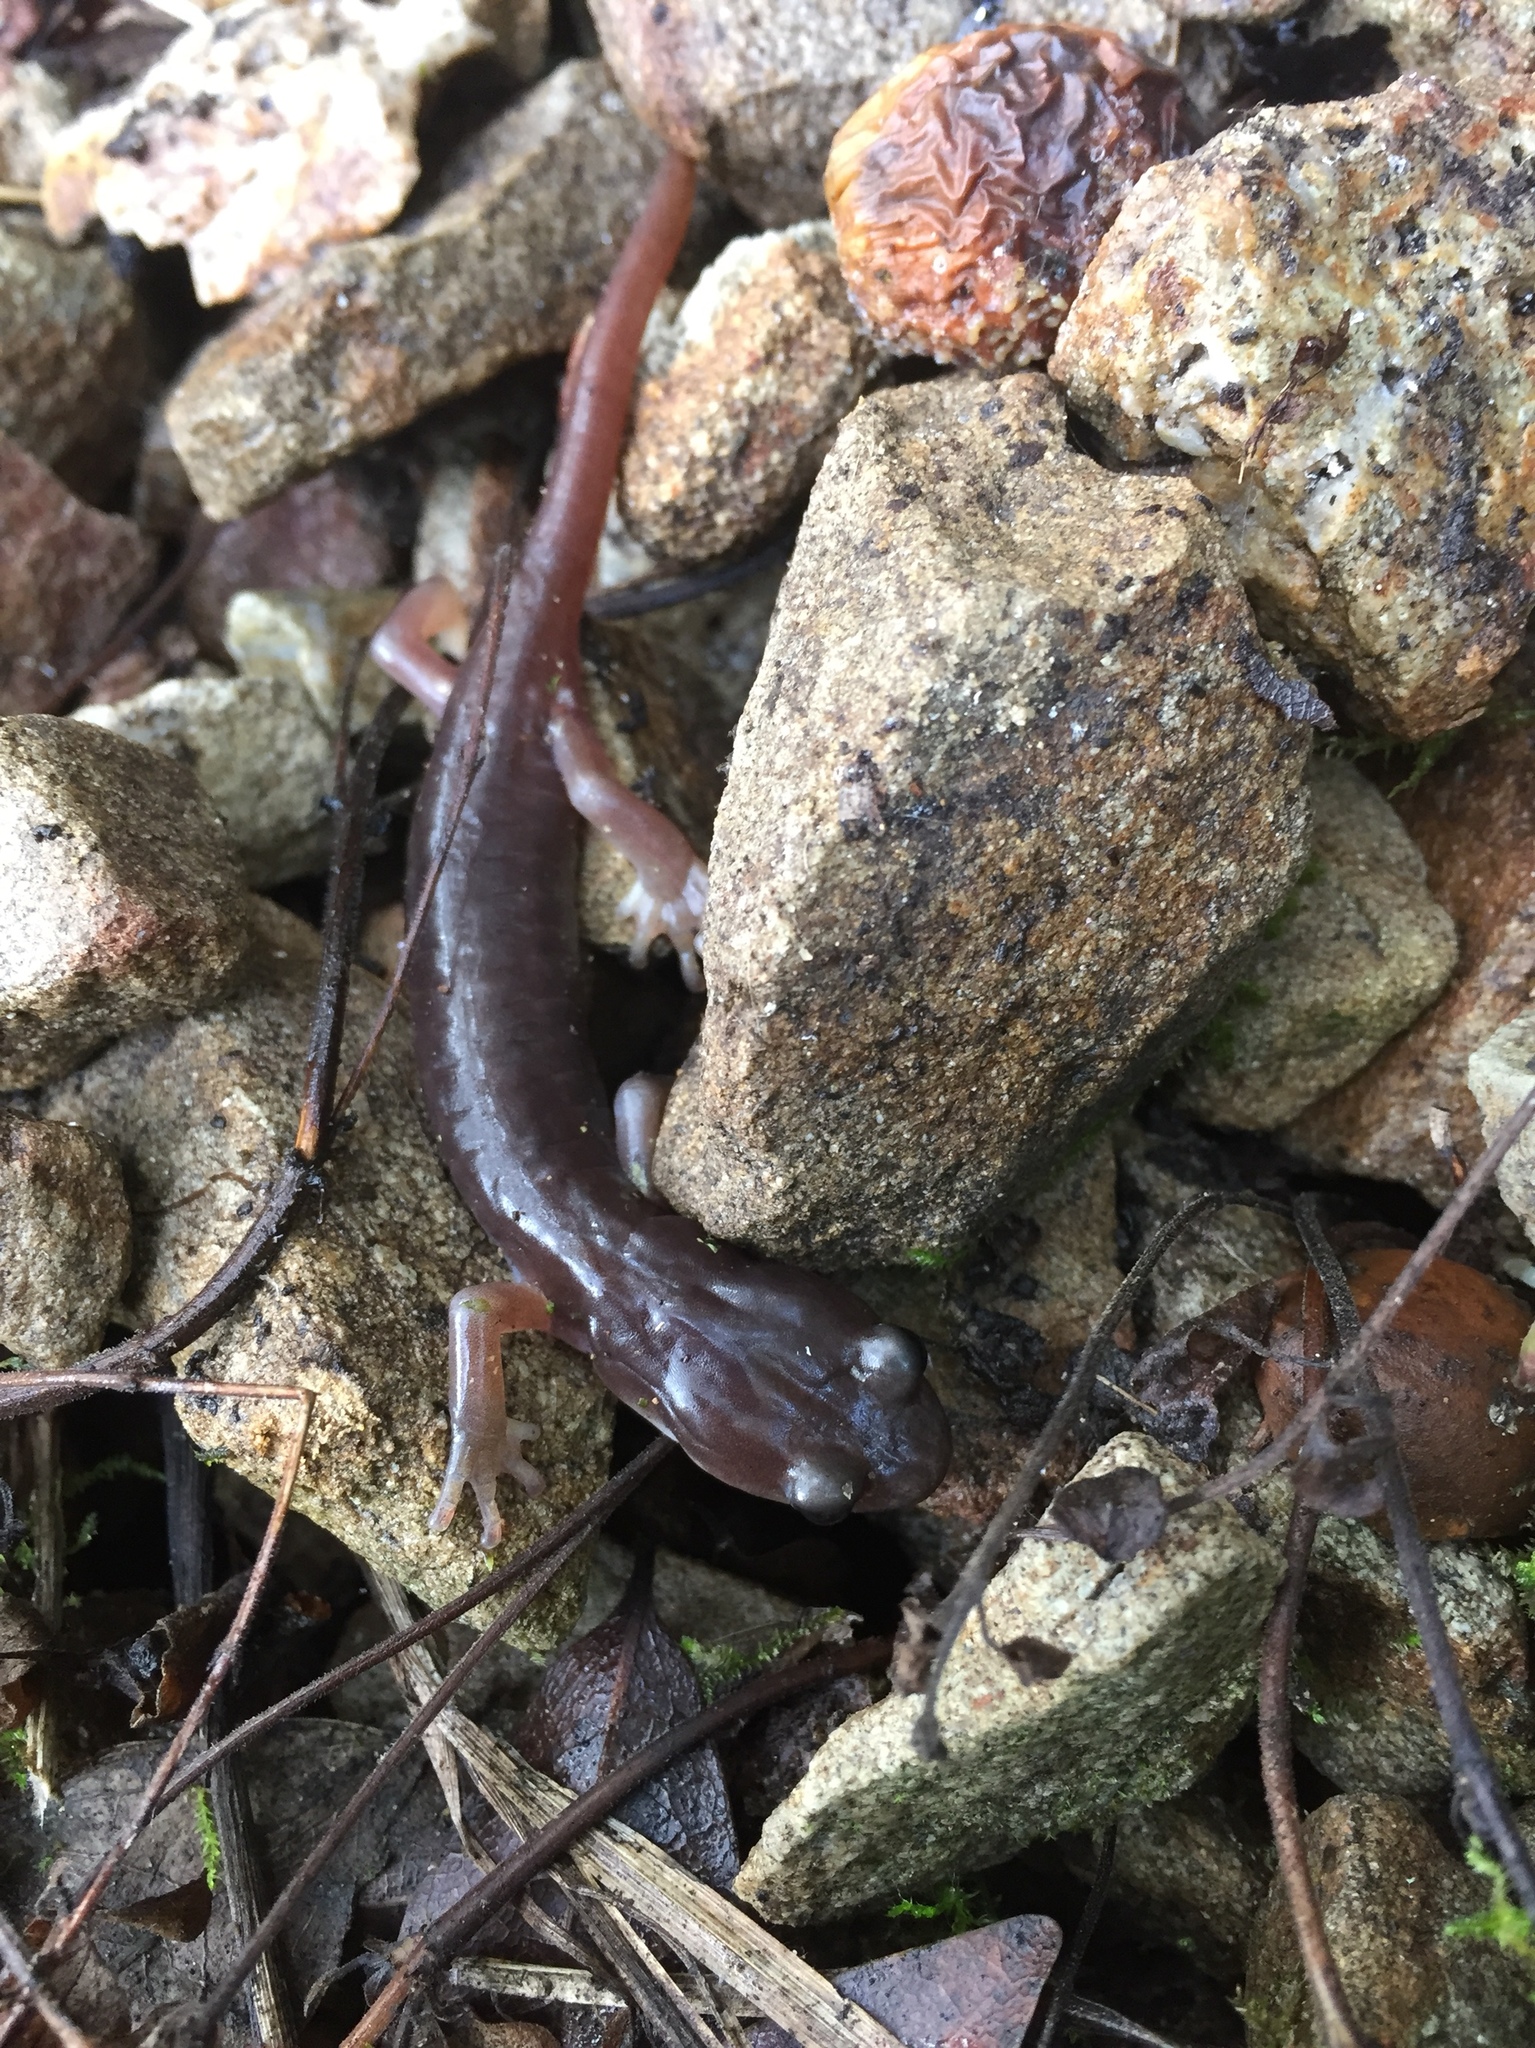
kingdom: Animalia
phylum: Chordata
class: Amphibia
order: Caudata
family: Plethodontidae
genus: Aneides
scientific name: Aneides lugubris
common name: Arboreal salamander
